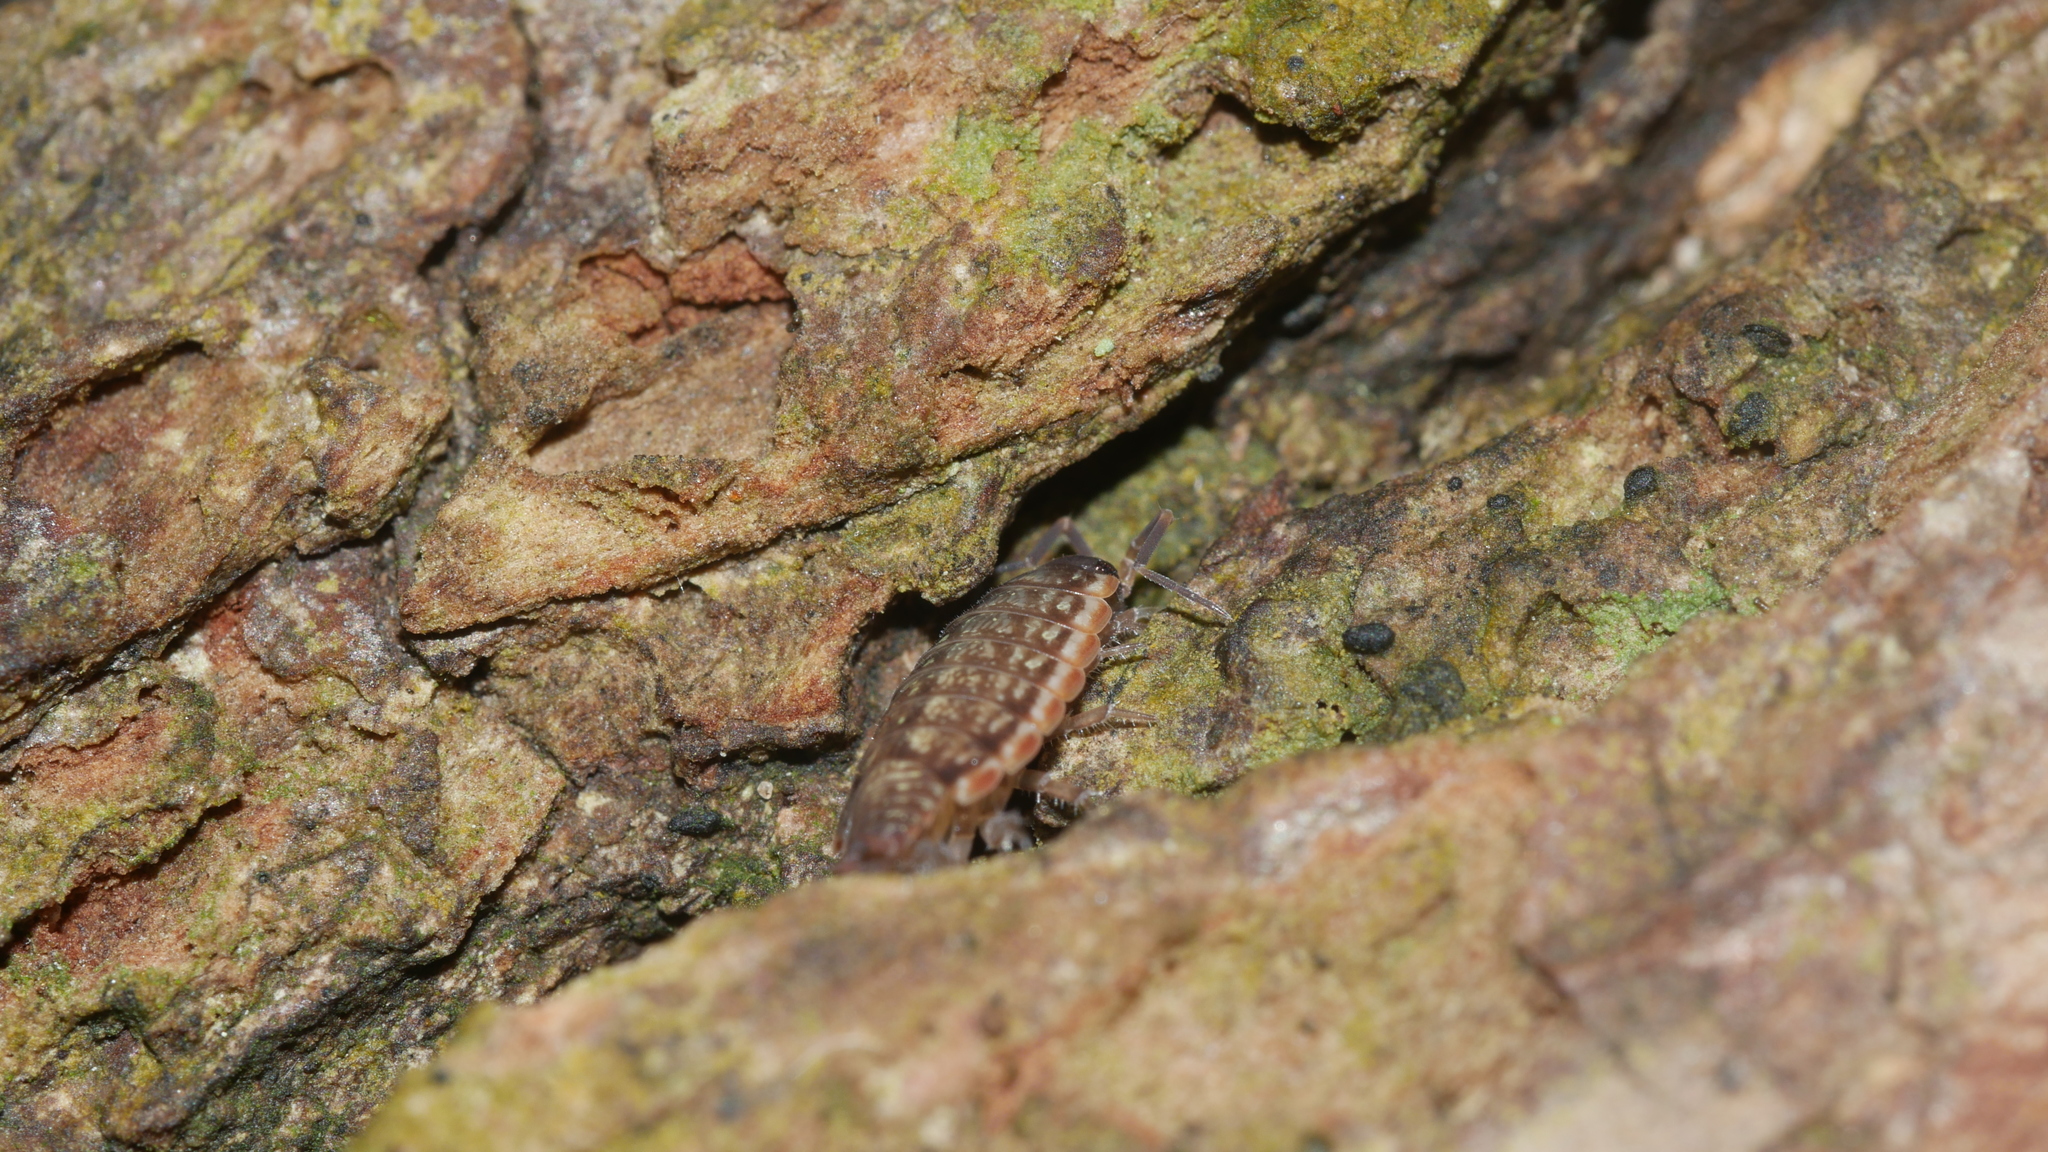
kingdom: Animalia
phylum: Arthropoda
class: Malacostraca
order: Isopoda
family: Philosciidae
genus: Philoscia
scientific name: Philoscia muscorum
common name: Common striped woodlouse
